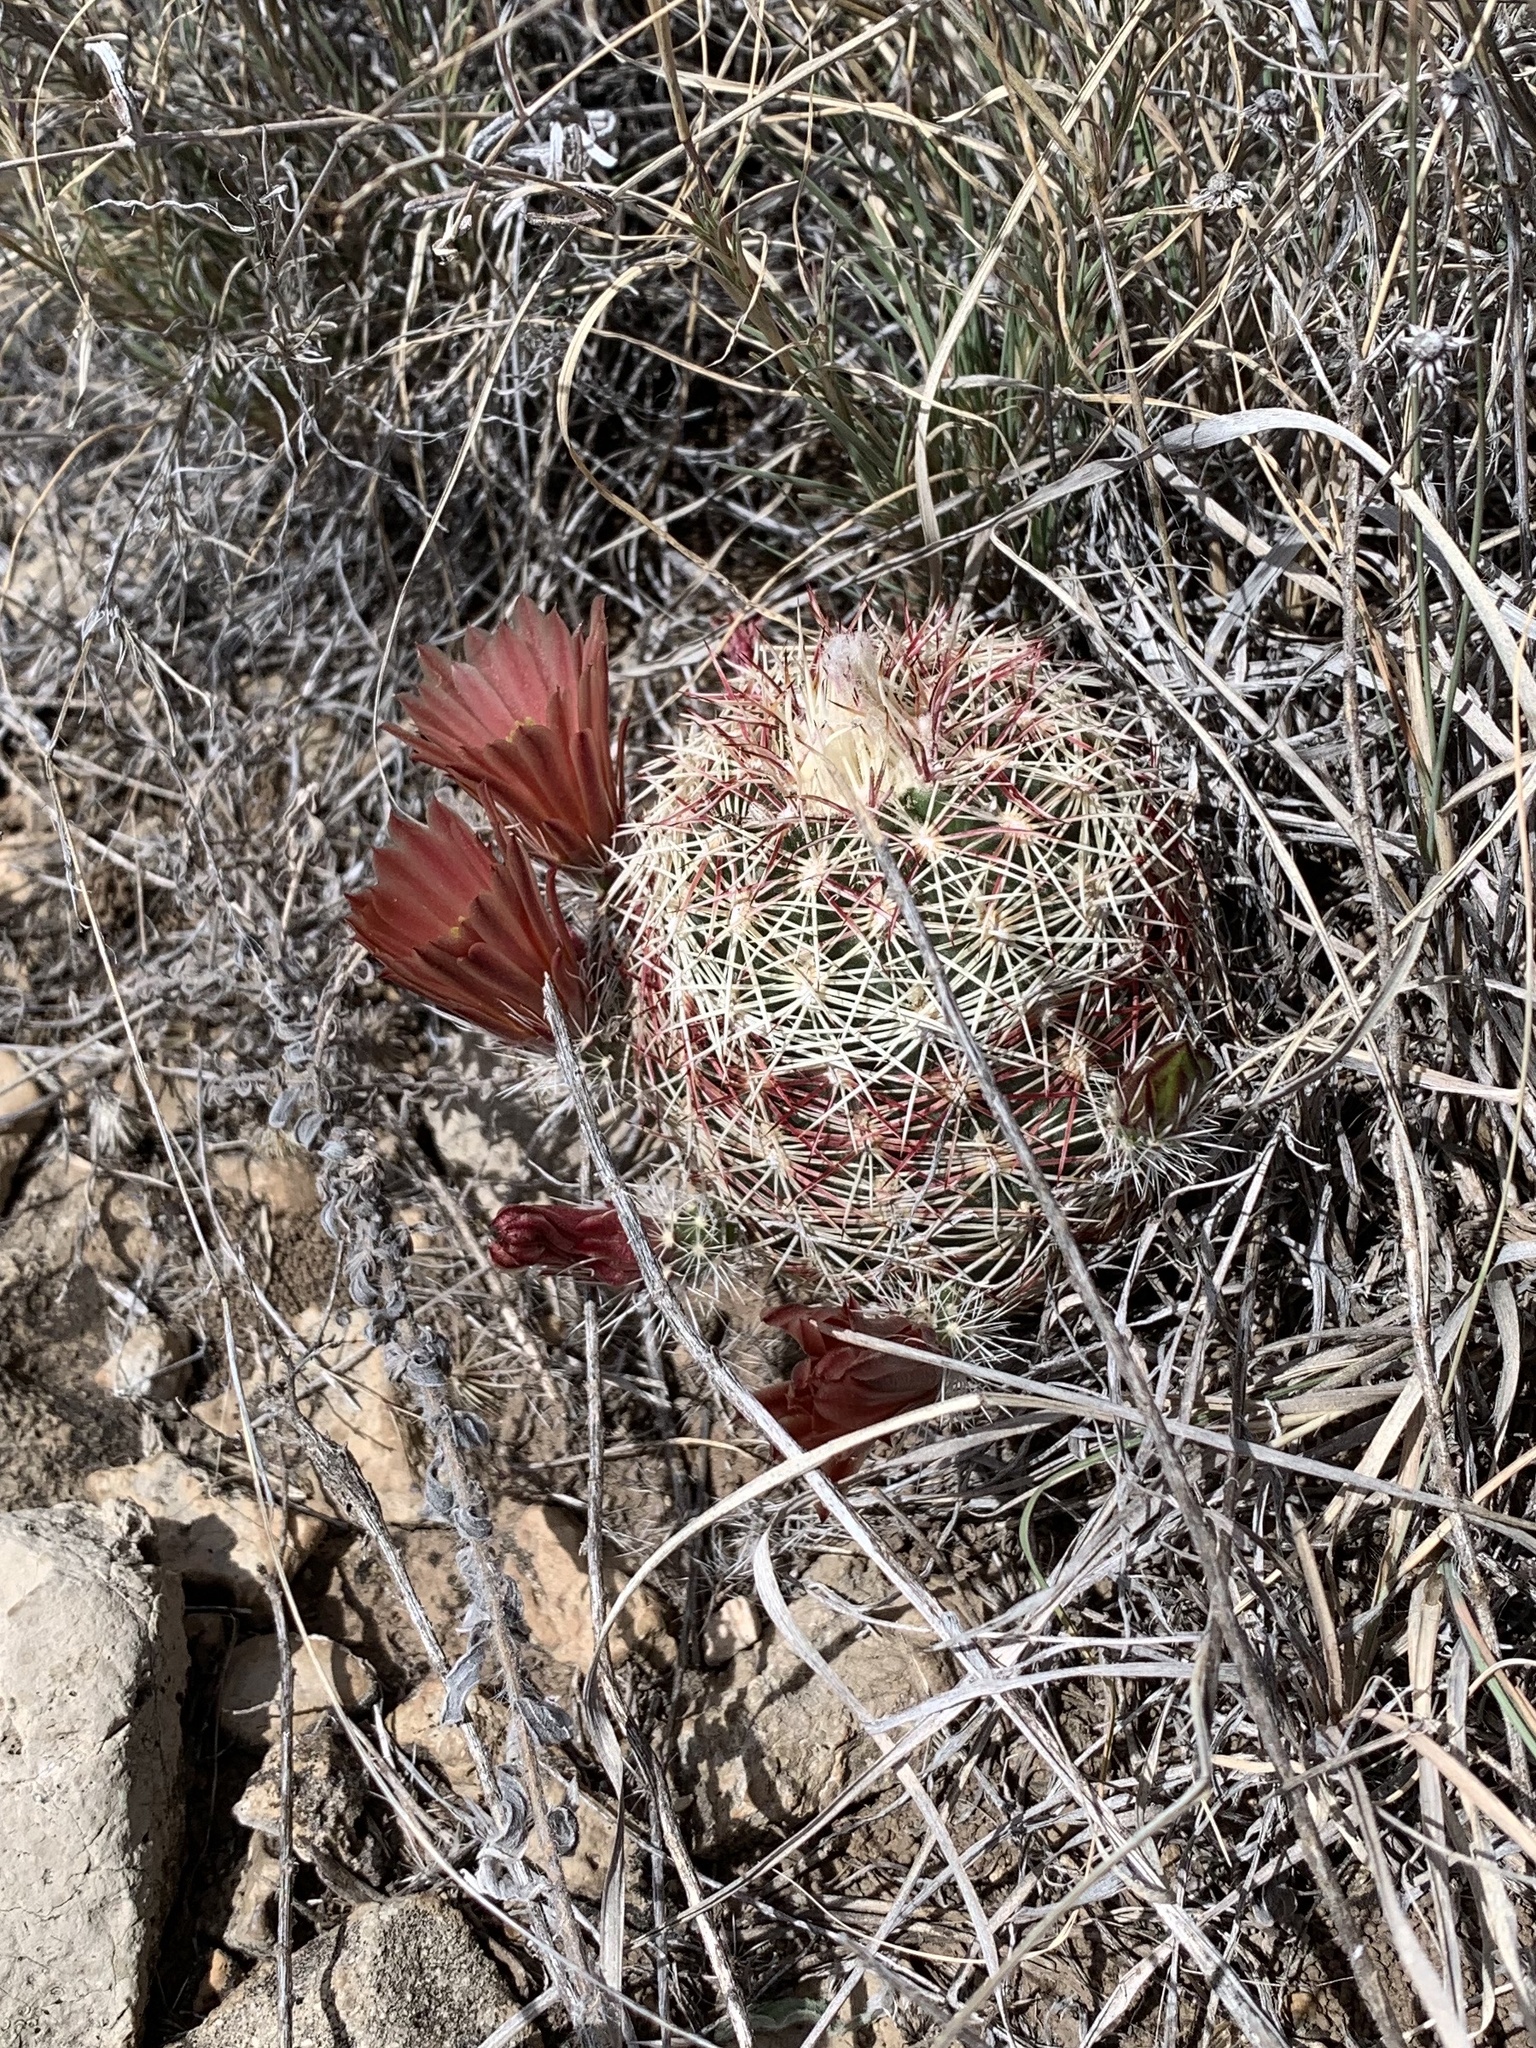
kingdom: Plantae
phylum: Tracheophyta
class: Magnoliopsida
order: Caryophyllales
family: Cactaceae
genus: Echinocereus
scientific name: Echinocereus viridiflorus
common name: Nylon hedgehog cactus
